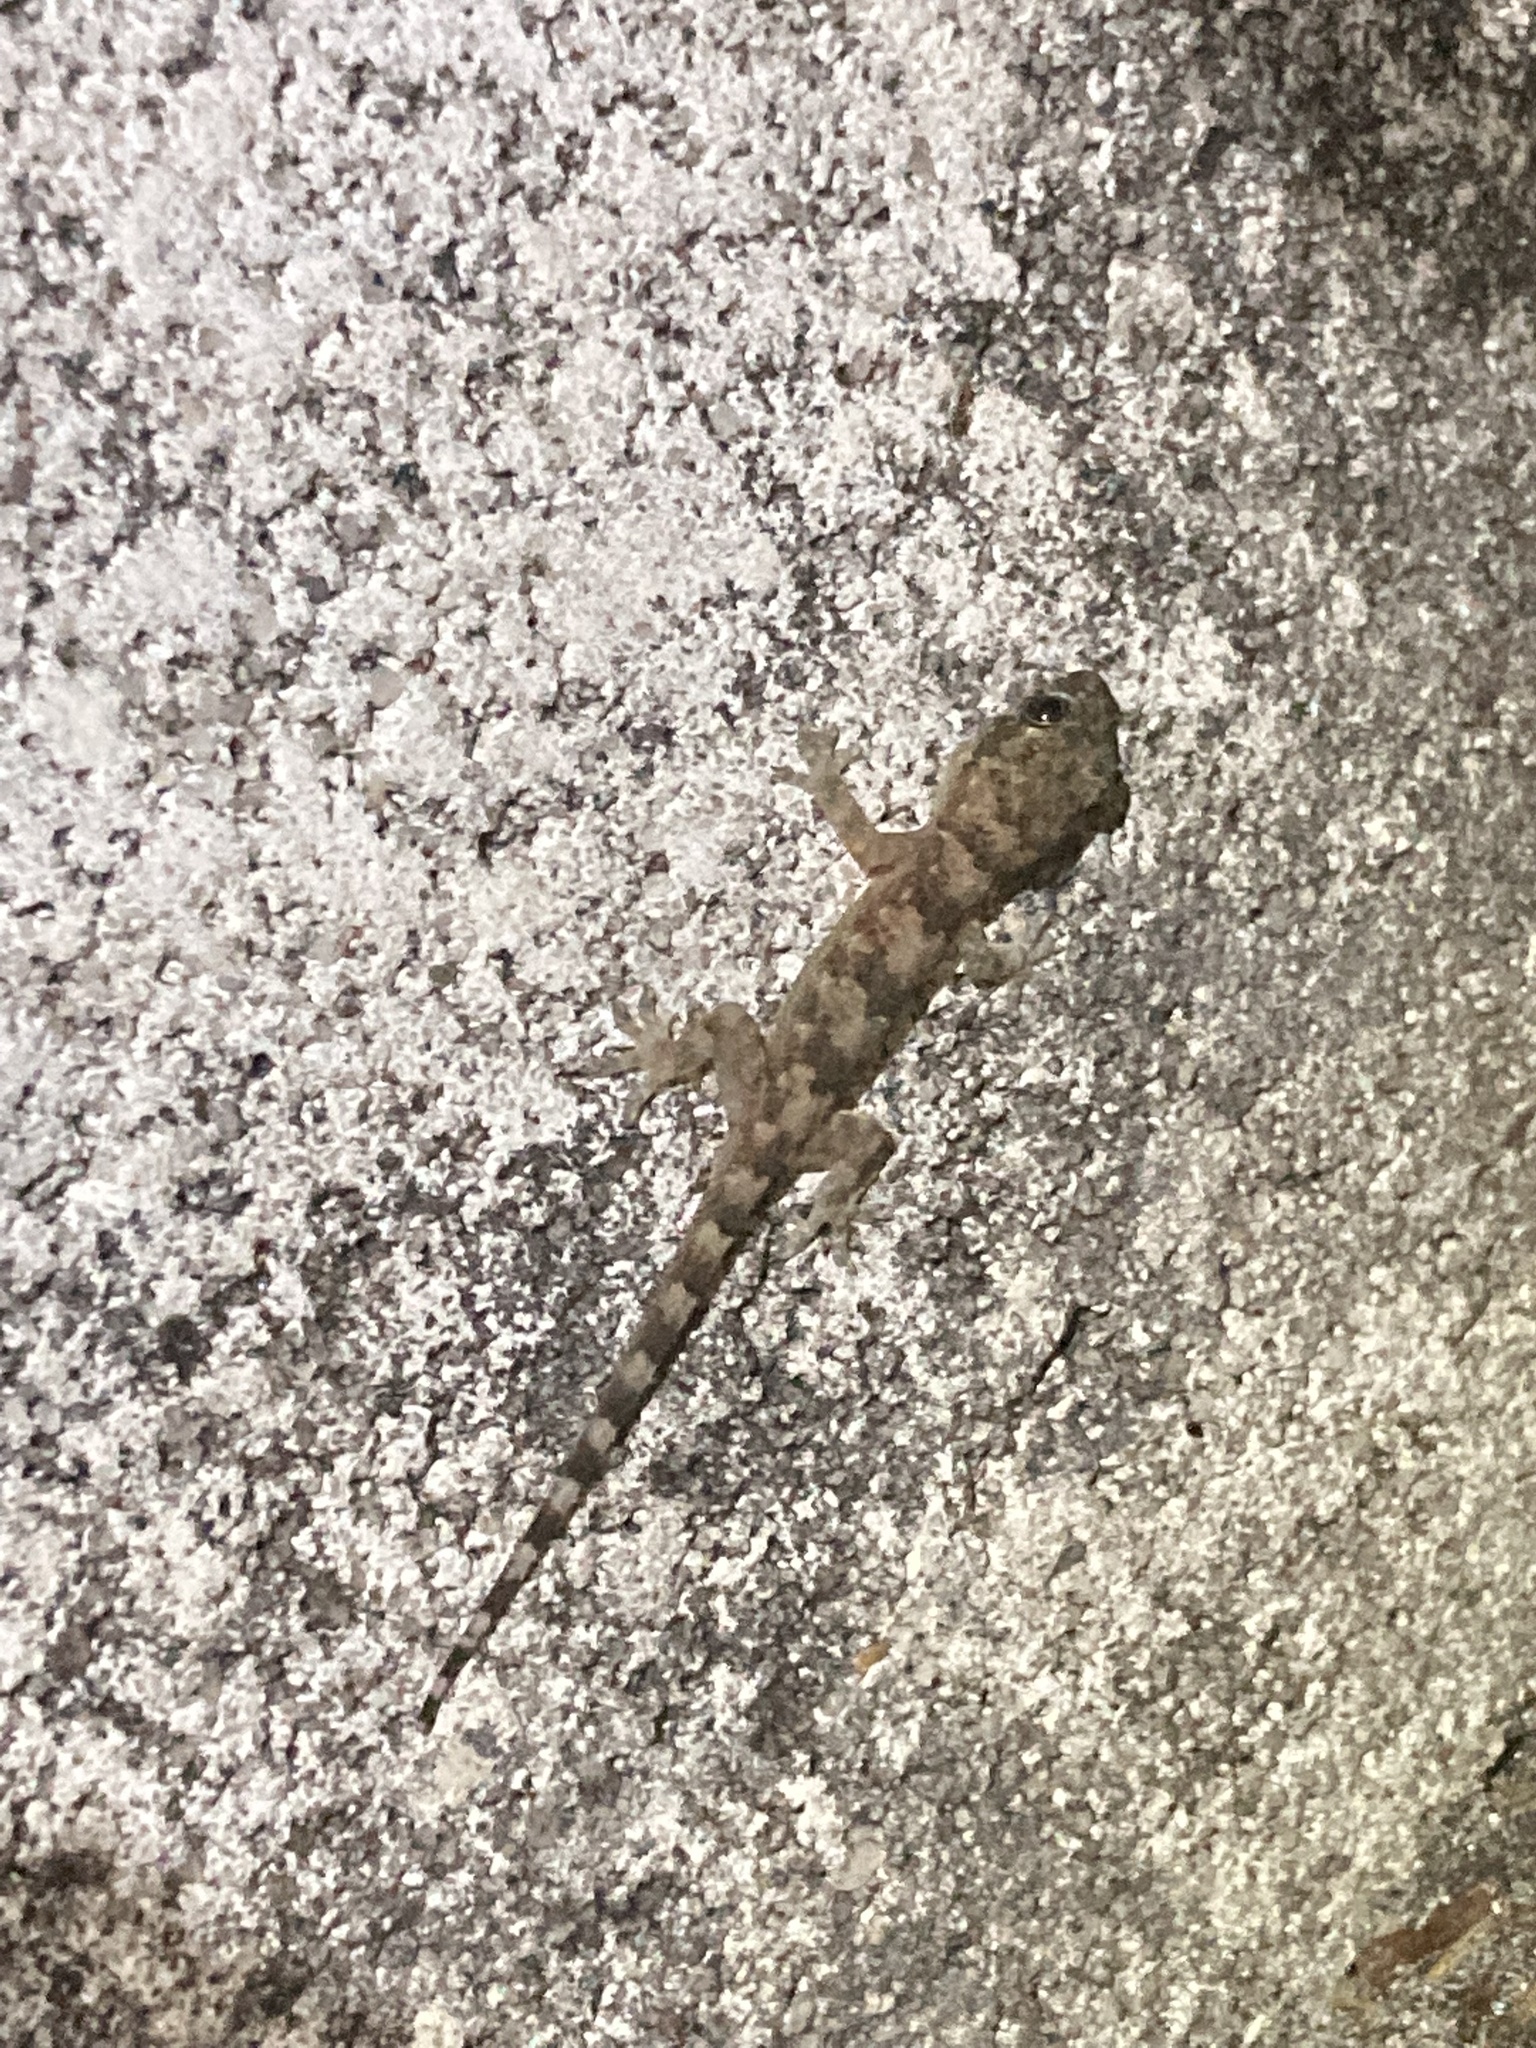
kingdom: Animalia
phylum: Chordata
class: Squamata
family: Gekkonidae
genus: Hemidactylus
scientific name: Hemidactylus mabouia
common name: House gecko
